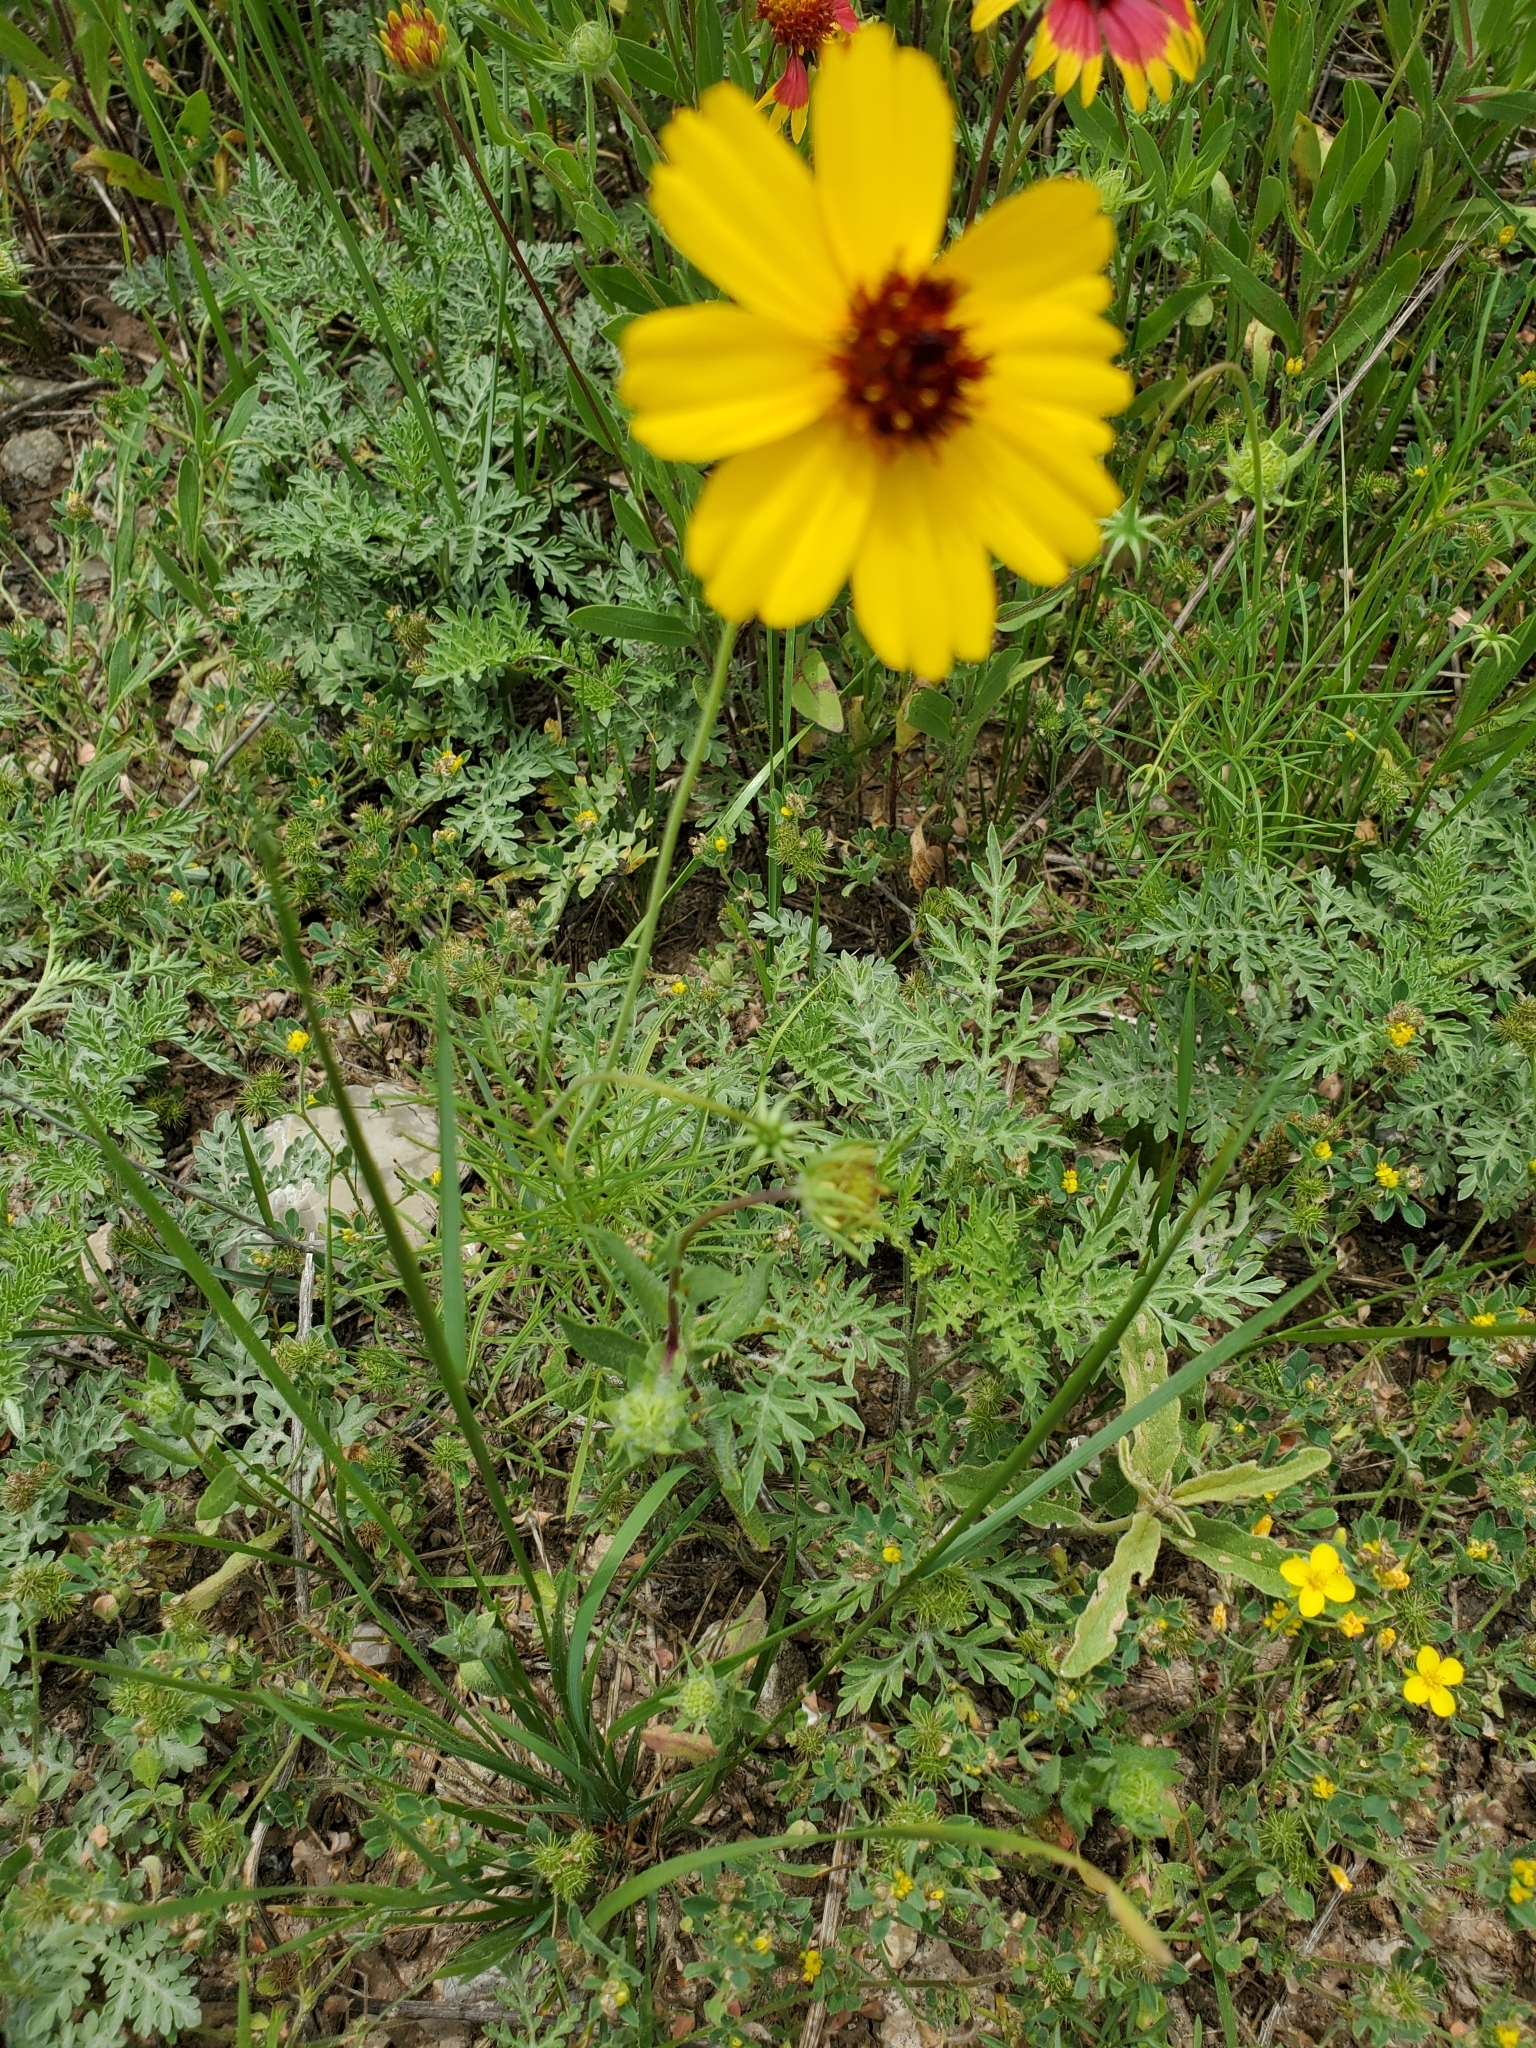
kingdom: Plantae
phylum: Tracheophyta
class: Magnoliopsida
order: Asterales
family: Asteraceae
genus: Thelesperma
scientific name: Thelesperma filifolium
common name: Stiff greenthread
